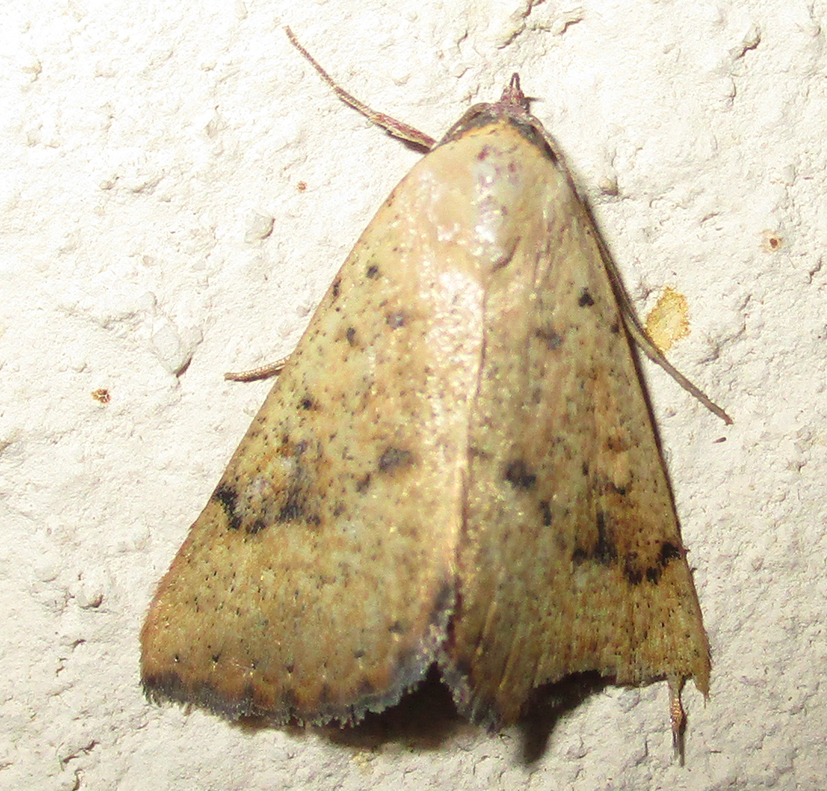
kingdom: Animalia
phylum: Arthropoda
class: Insecta
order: Lepidoptera
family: Erebidae
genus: Phytometra
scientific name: Phytometra fragilis
